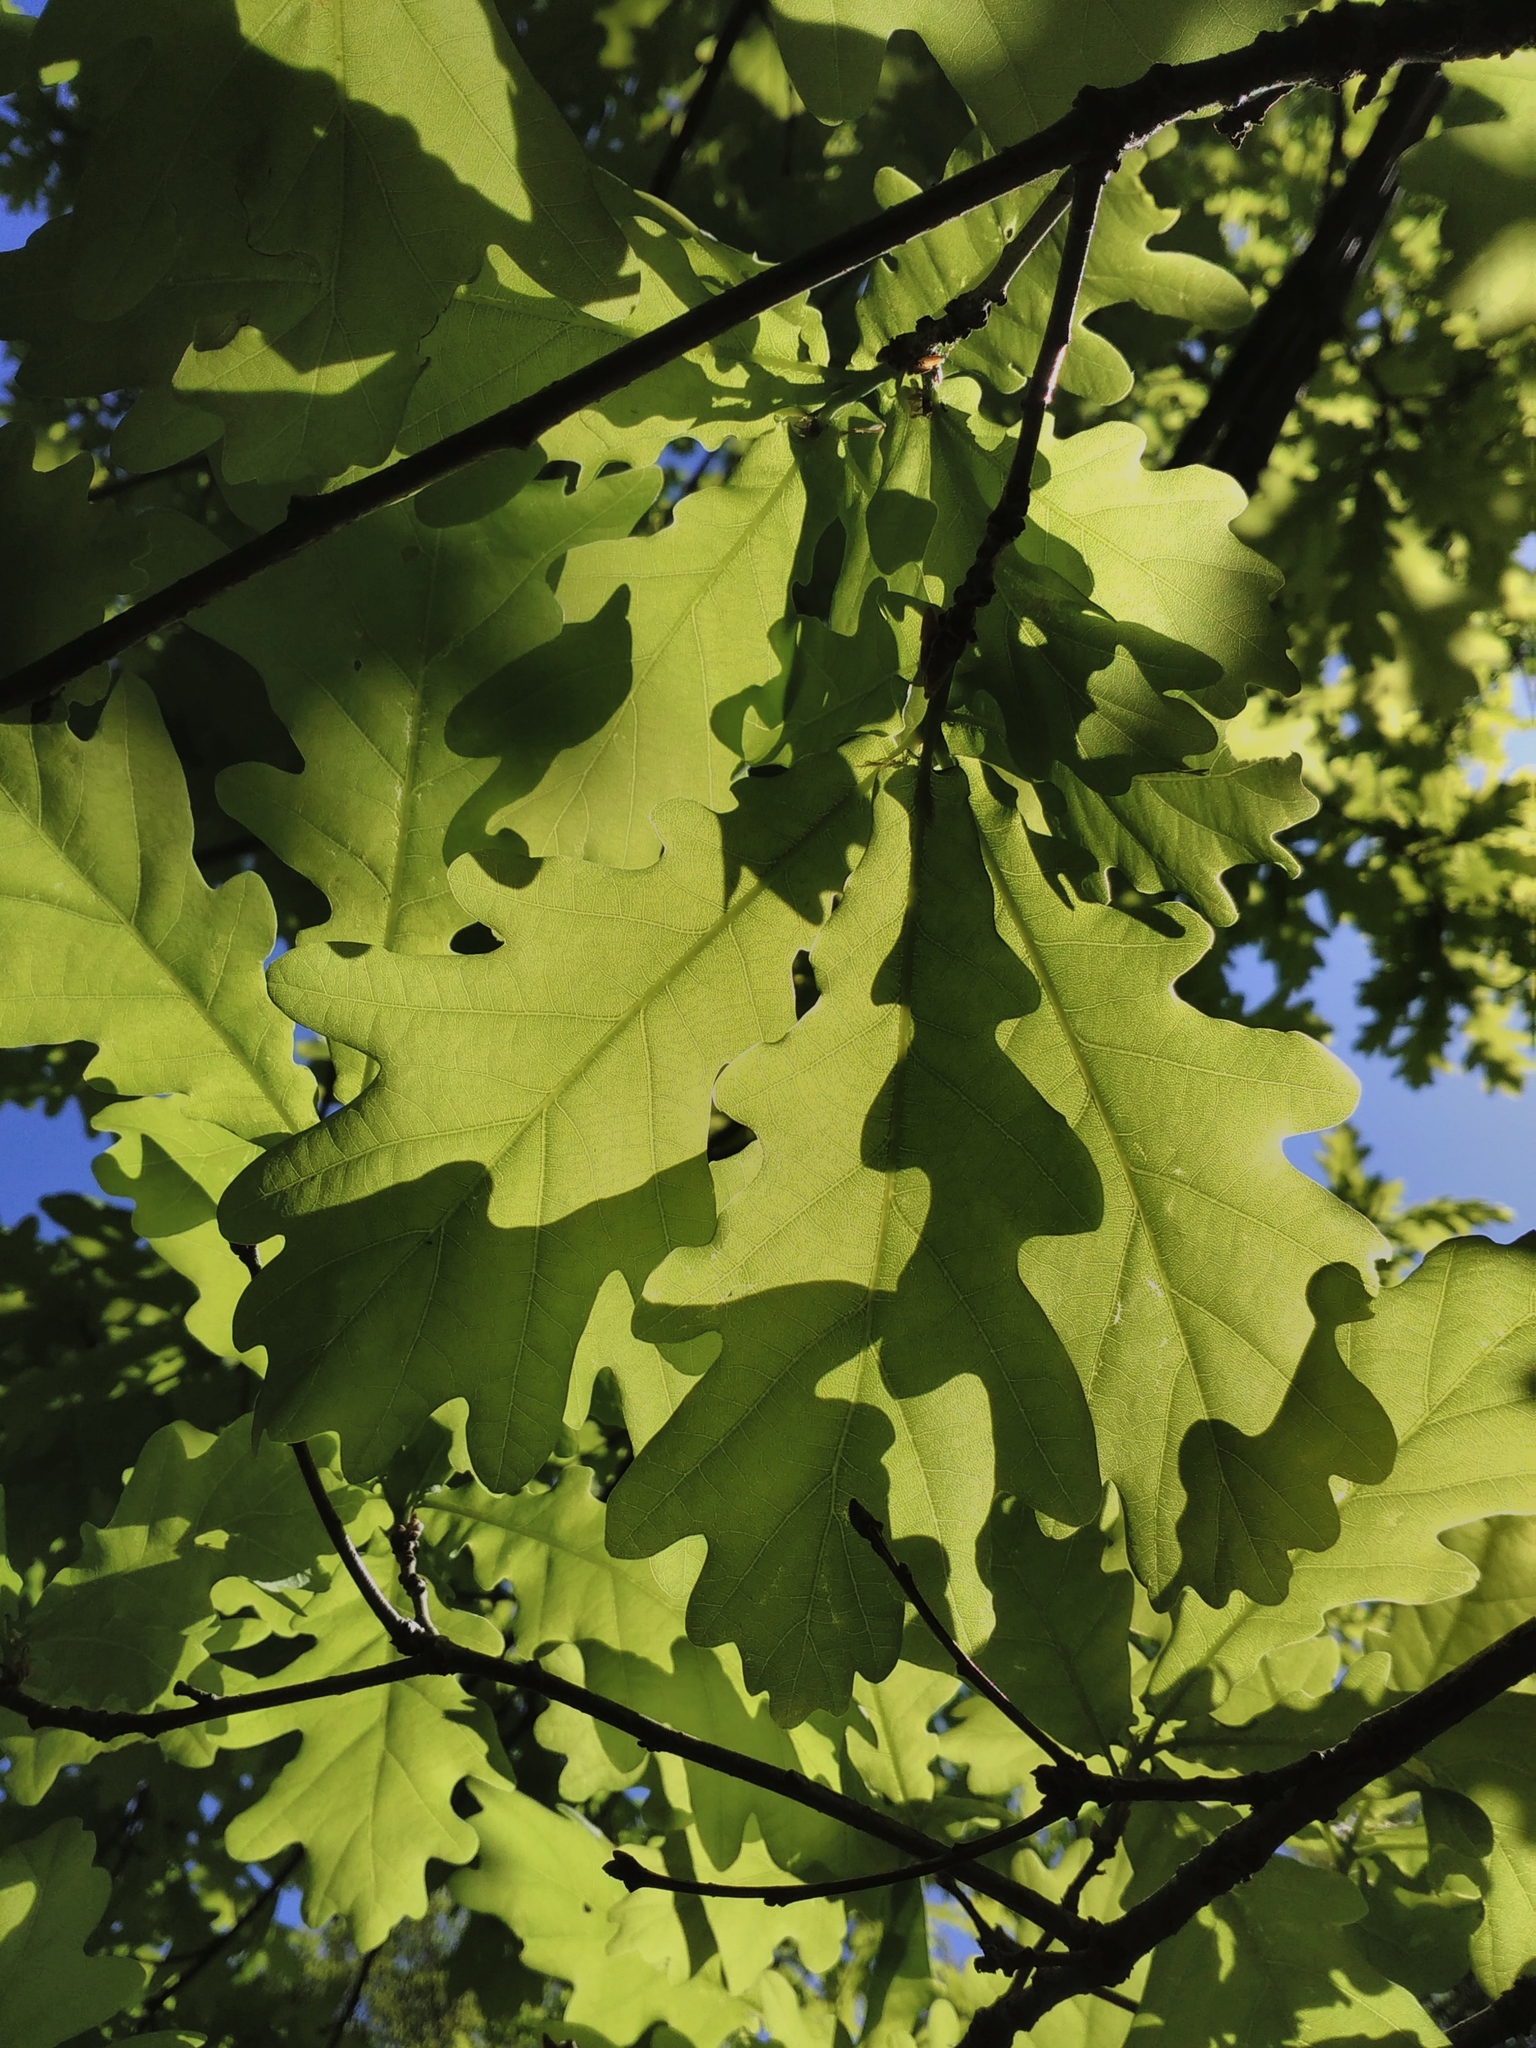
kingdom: Plantae
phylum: Tracheophyta
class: Magnoliopsida
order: Fagales
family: Fagaceae
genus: Quercus
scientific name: Quercus robur
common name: Pedunculate oak
